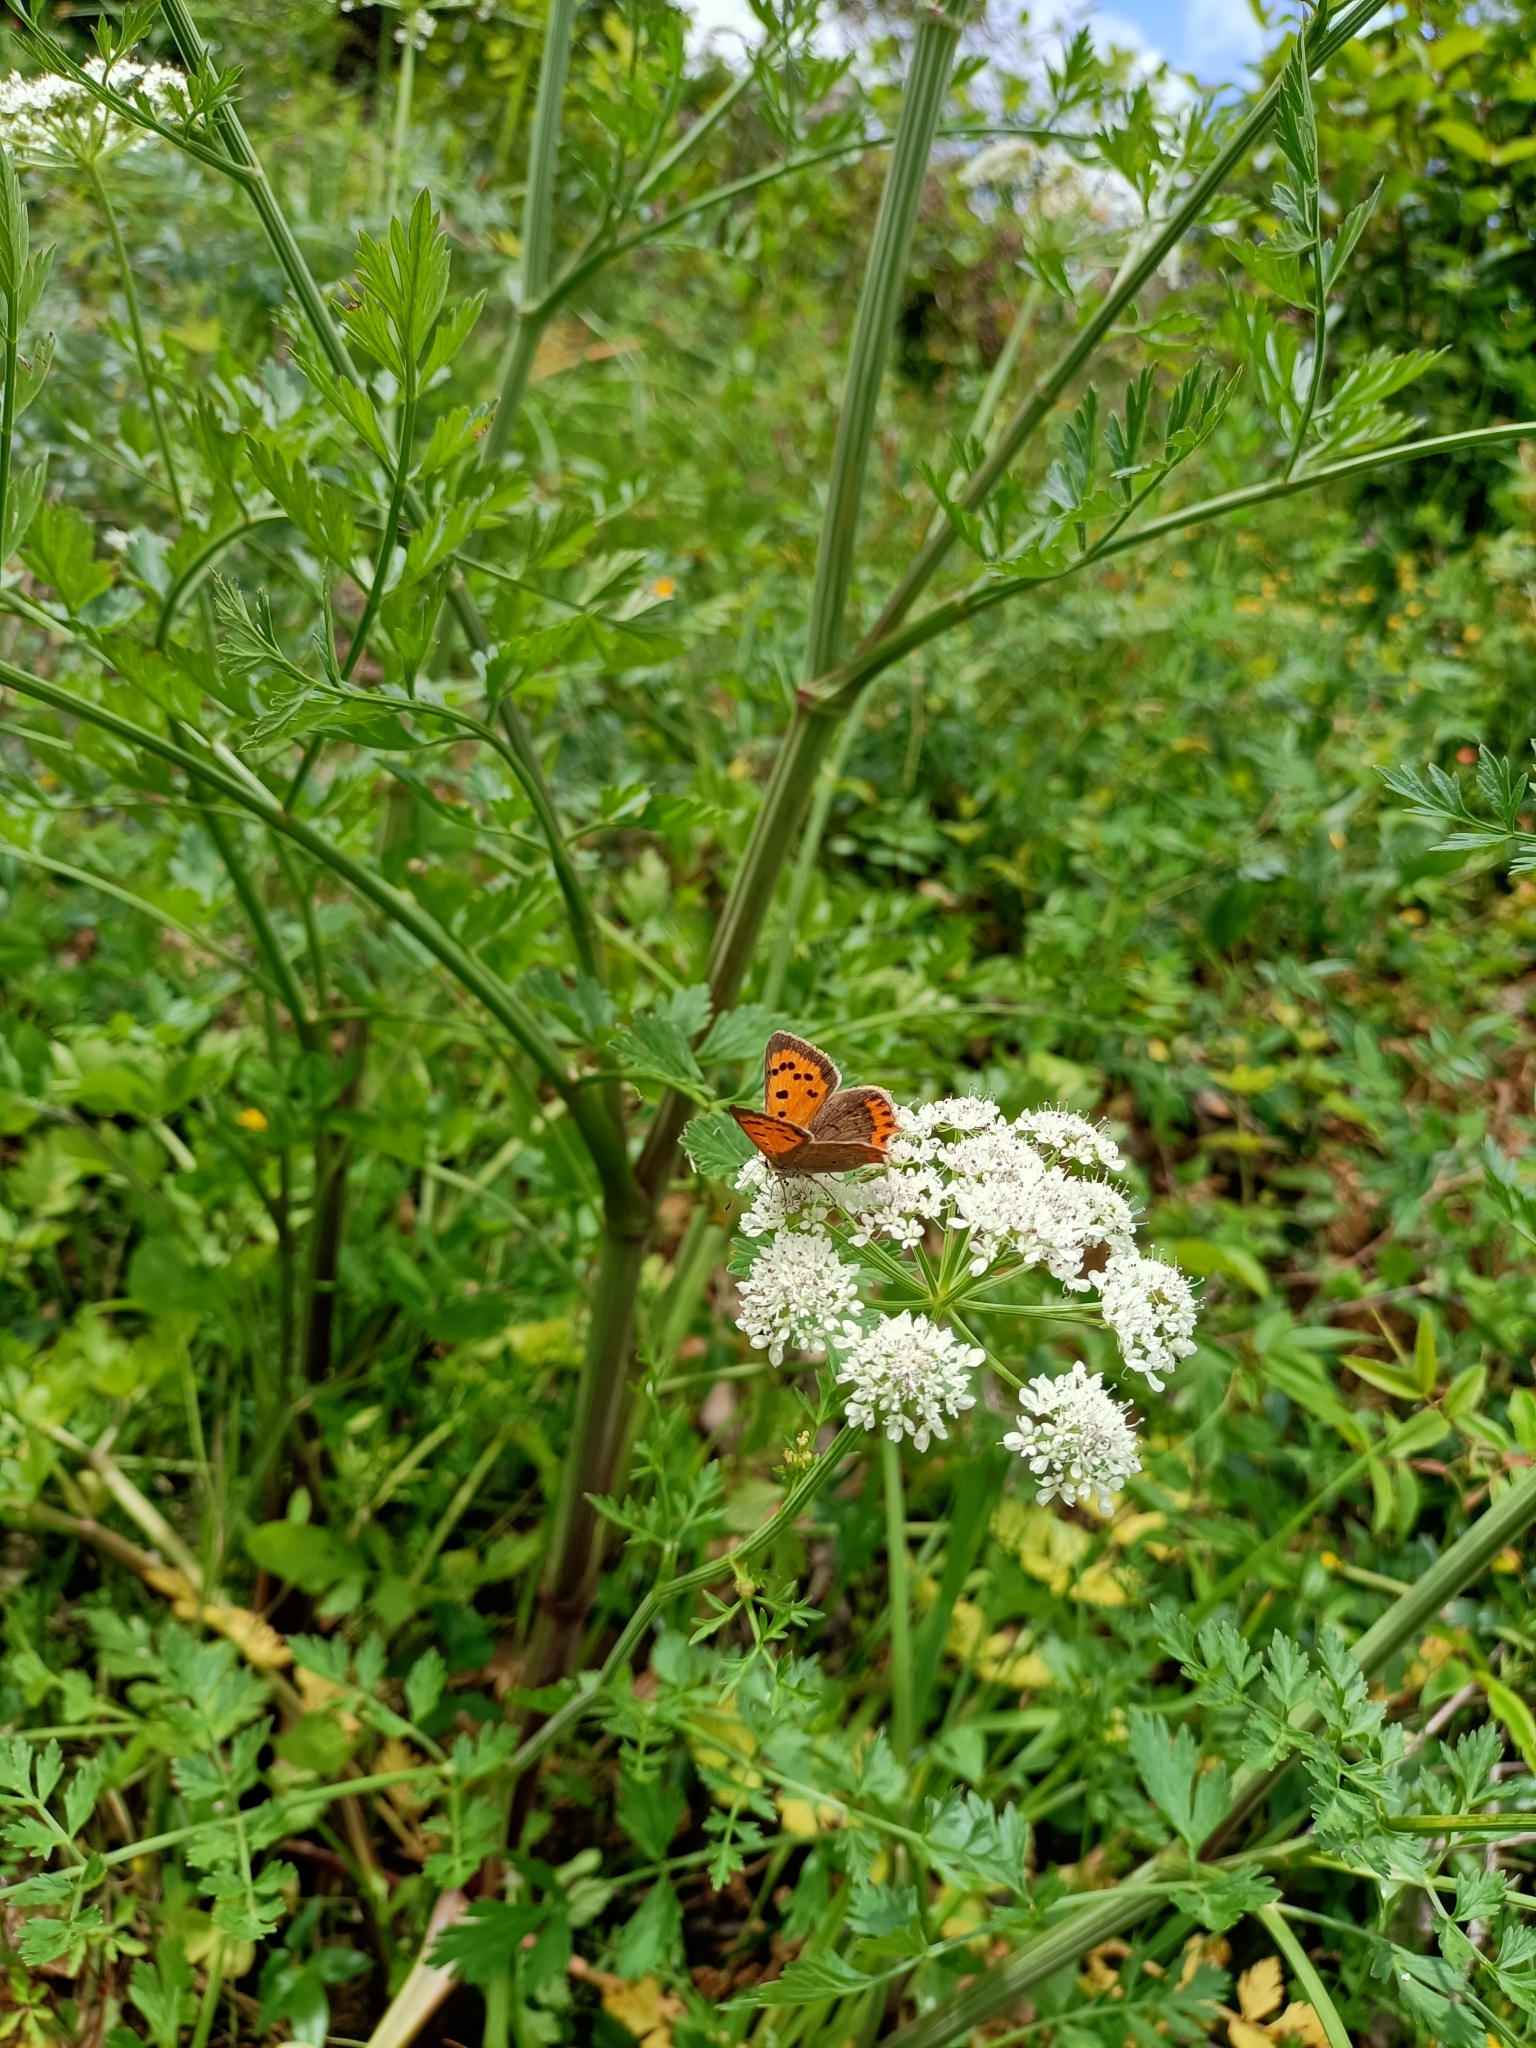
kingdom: Animalia
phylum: Arthropoda
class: Insecta
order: Lepidoptera
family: Lycaenidae
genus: Lycaena
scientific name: Lycaena phlaeas
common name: Small copper
